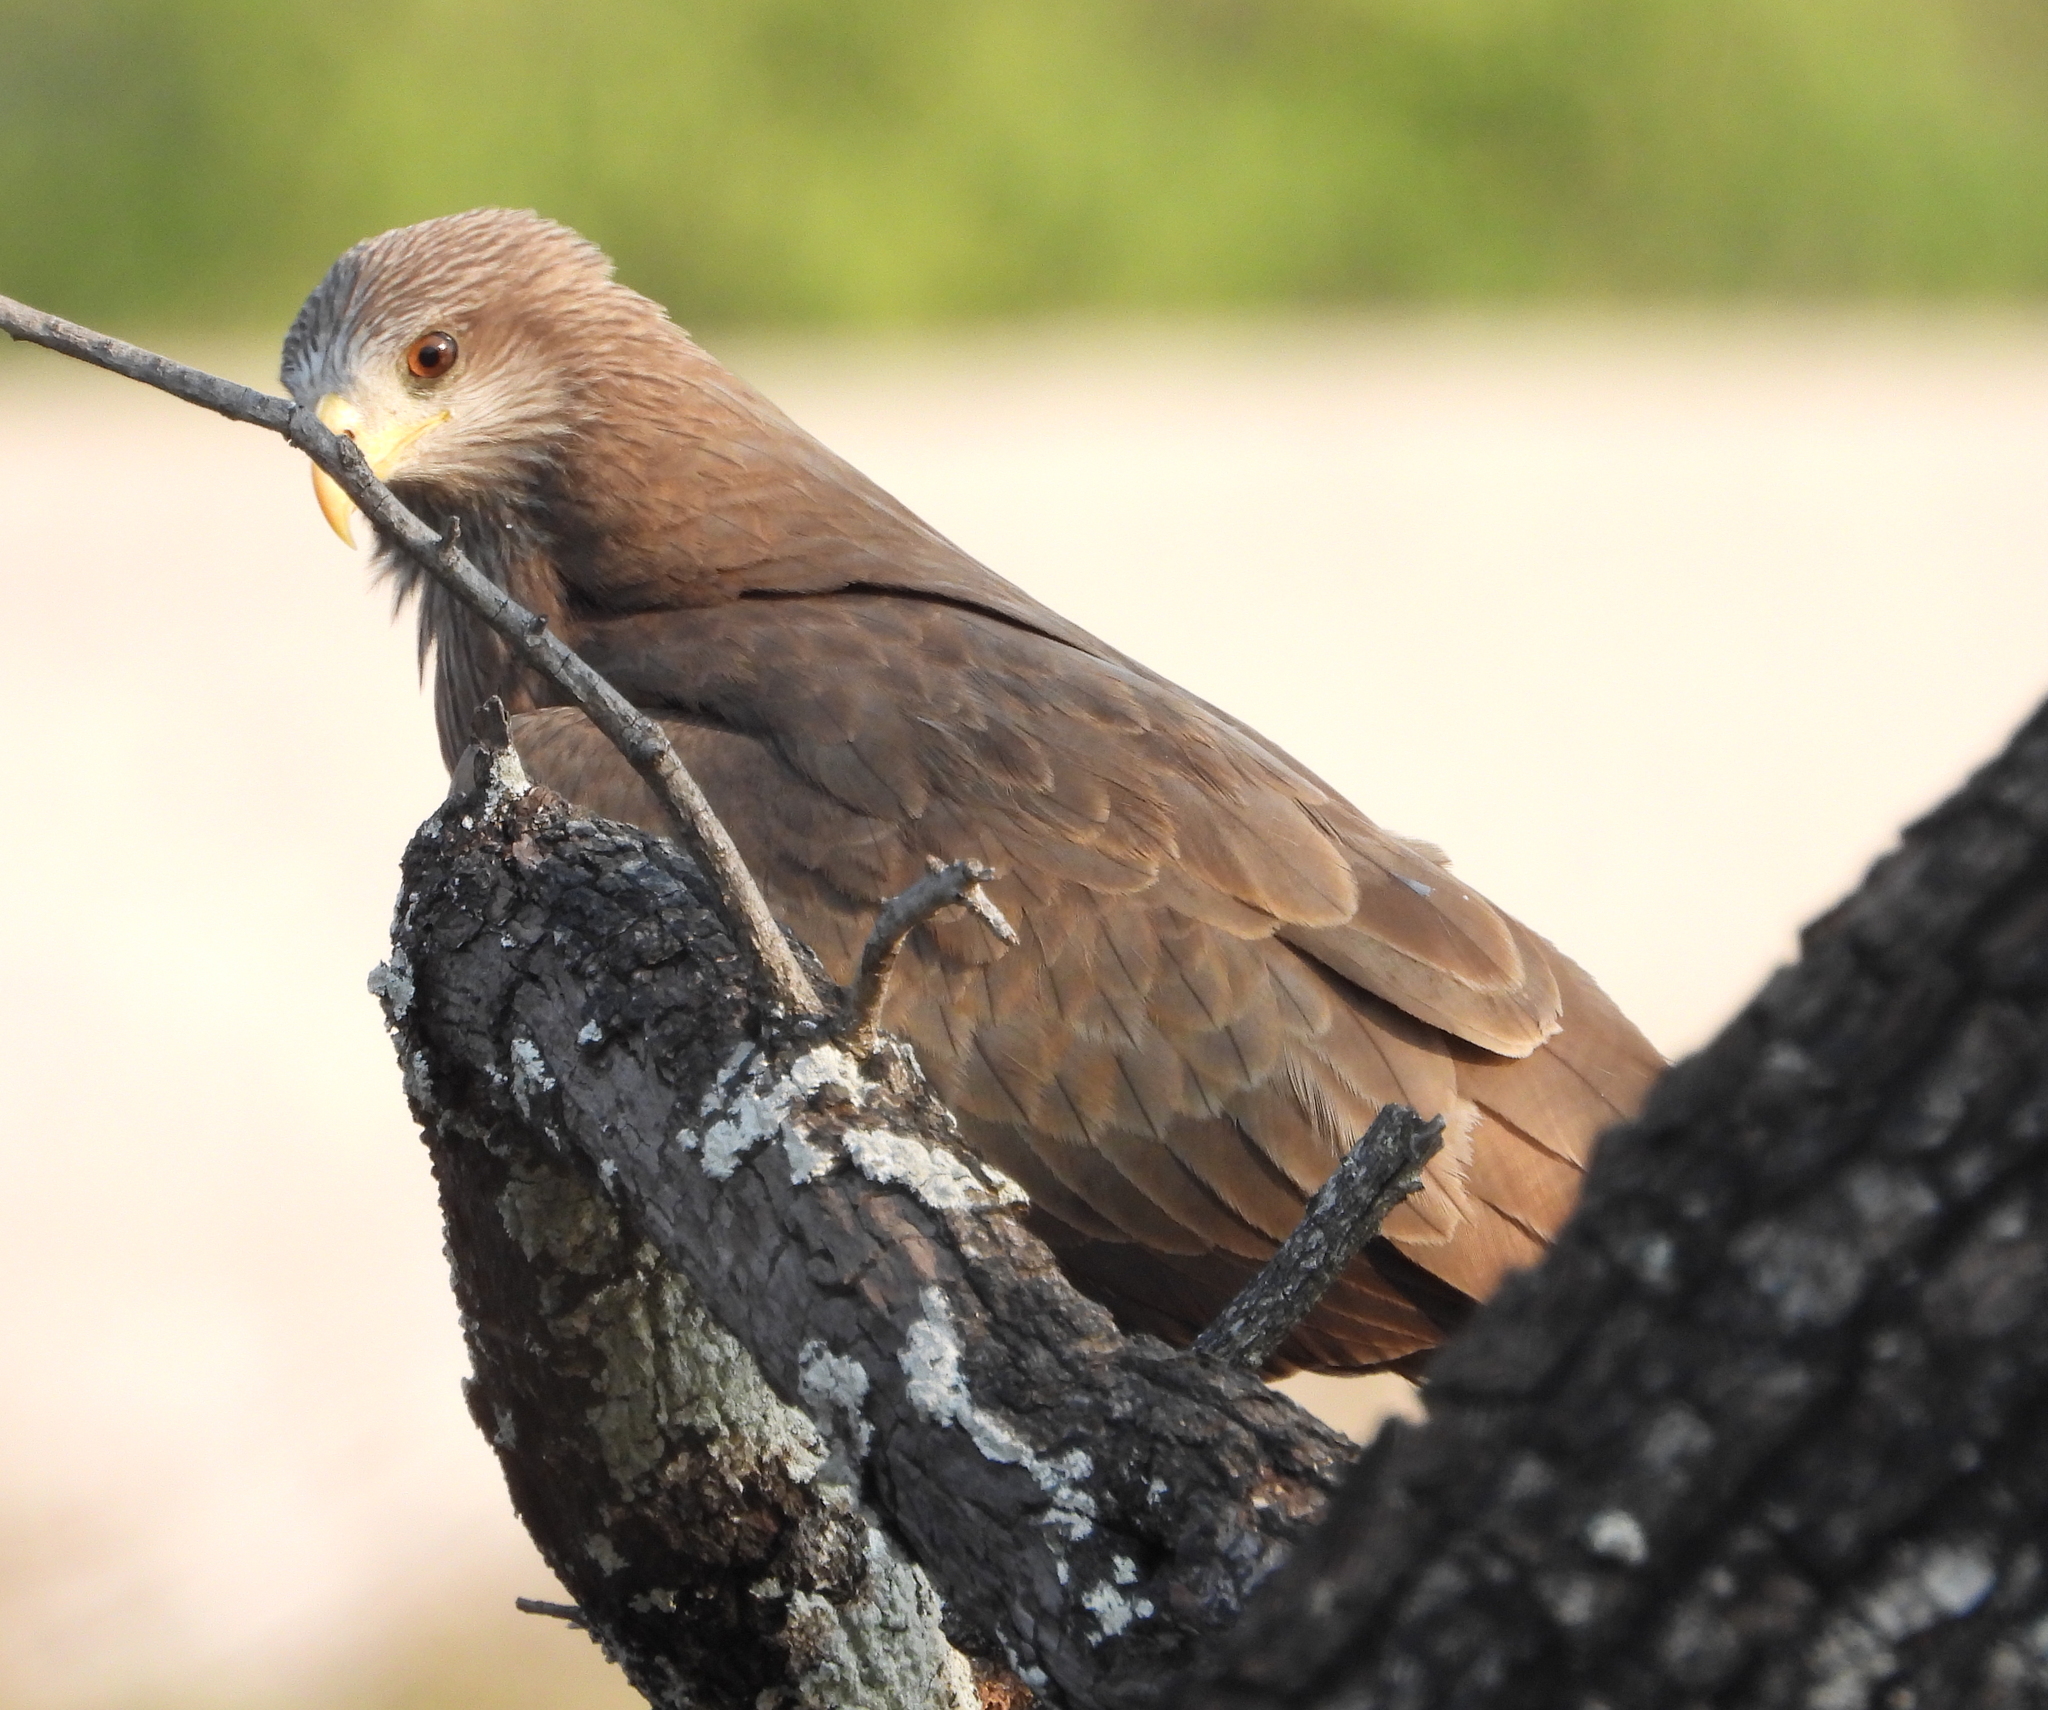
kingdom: Animalia
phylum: Chordata
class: Aves
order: Accipitriformes
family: Accipitridae
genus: Milvus
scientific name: Milvus migrans
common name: Black kite
